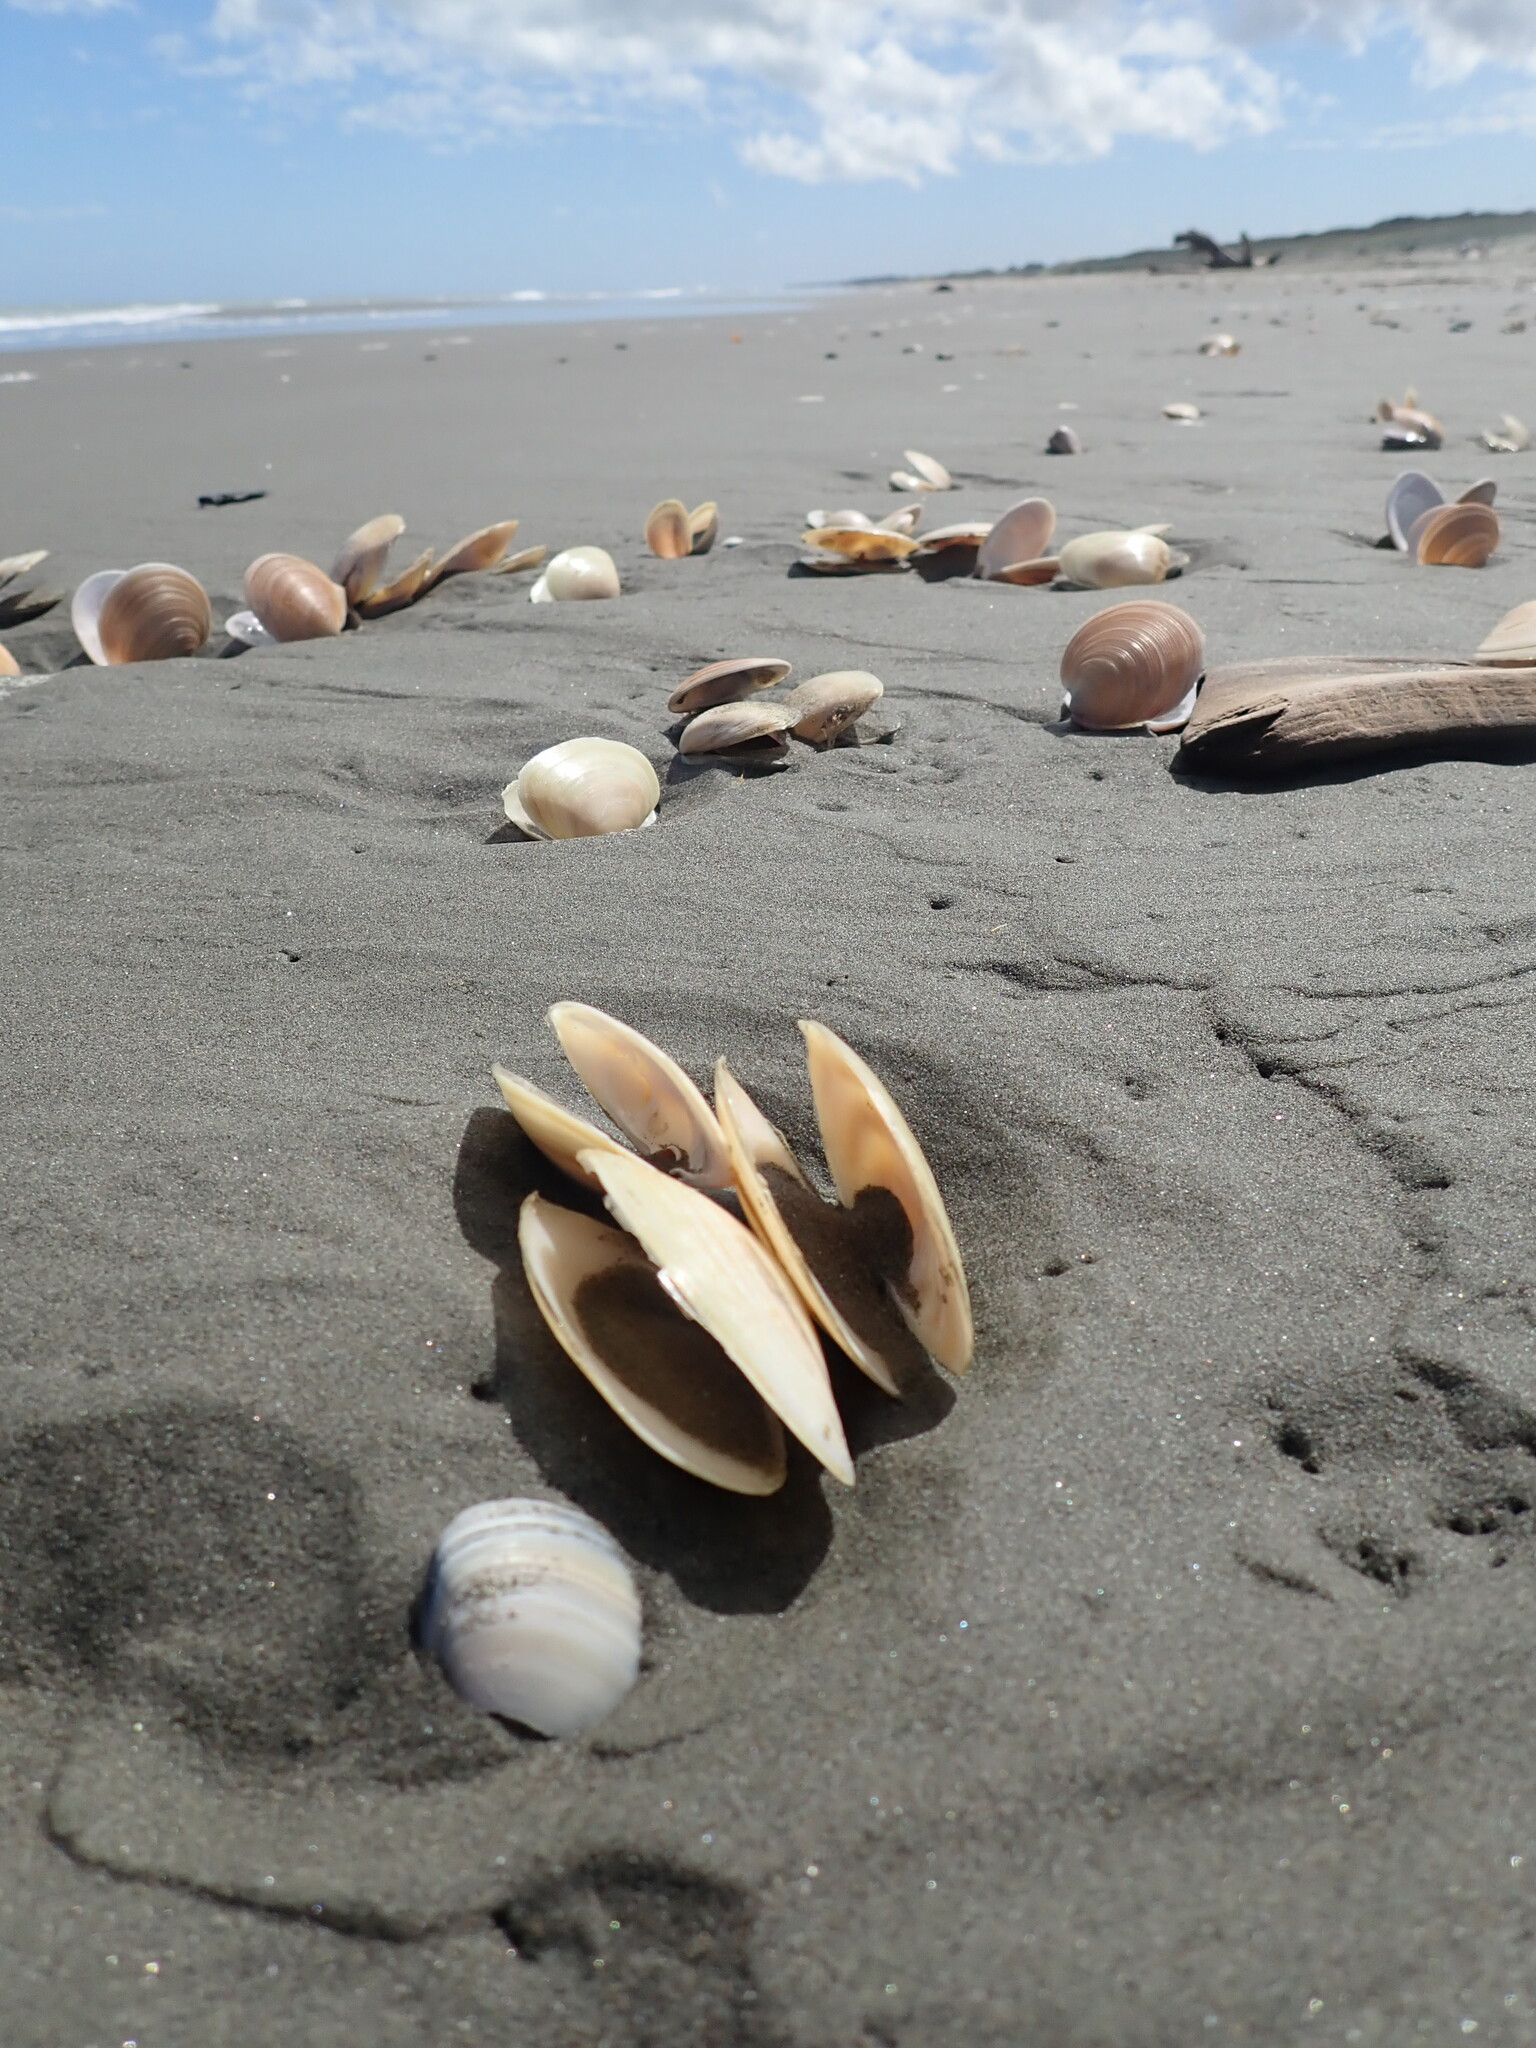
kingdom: Animalia
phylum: Mollusca
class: Bivalvia
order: Venerida
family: Mesodesmatidae
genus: Paphies
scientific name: Paphies donacina
